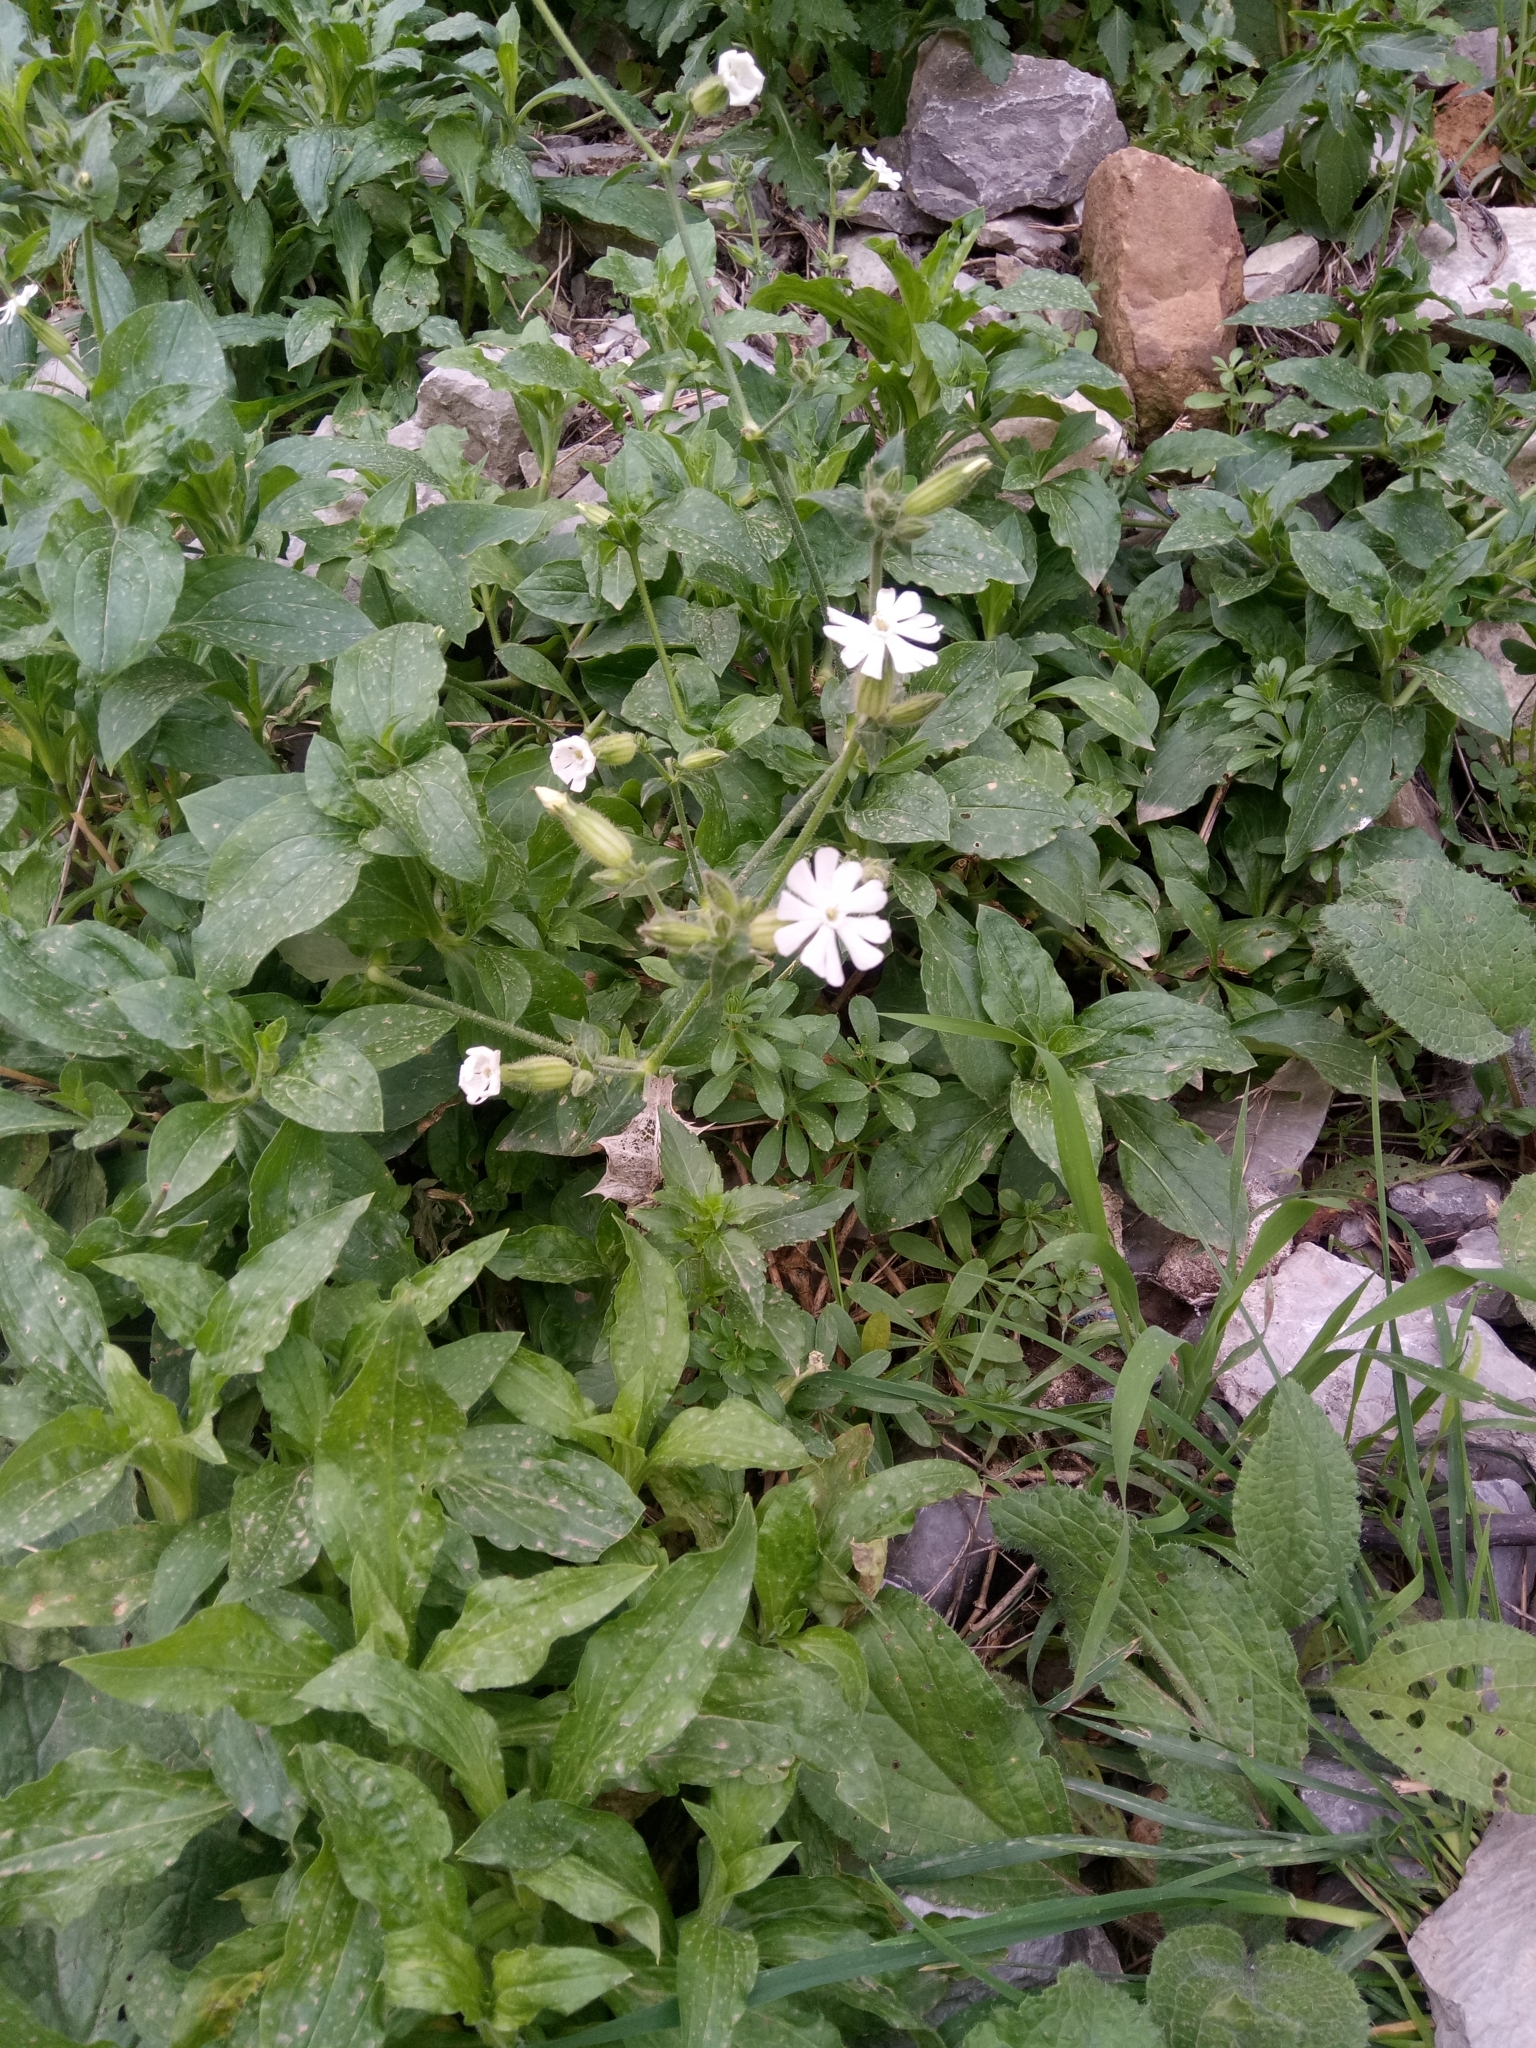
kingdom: Plantae
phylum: Tracheophyta
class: Magnoliopsida
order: Caryophyllales
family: Caryophyllaceae
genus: Silene
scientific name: Silene latifolia
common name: White campion
